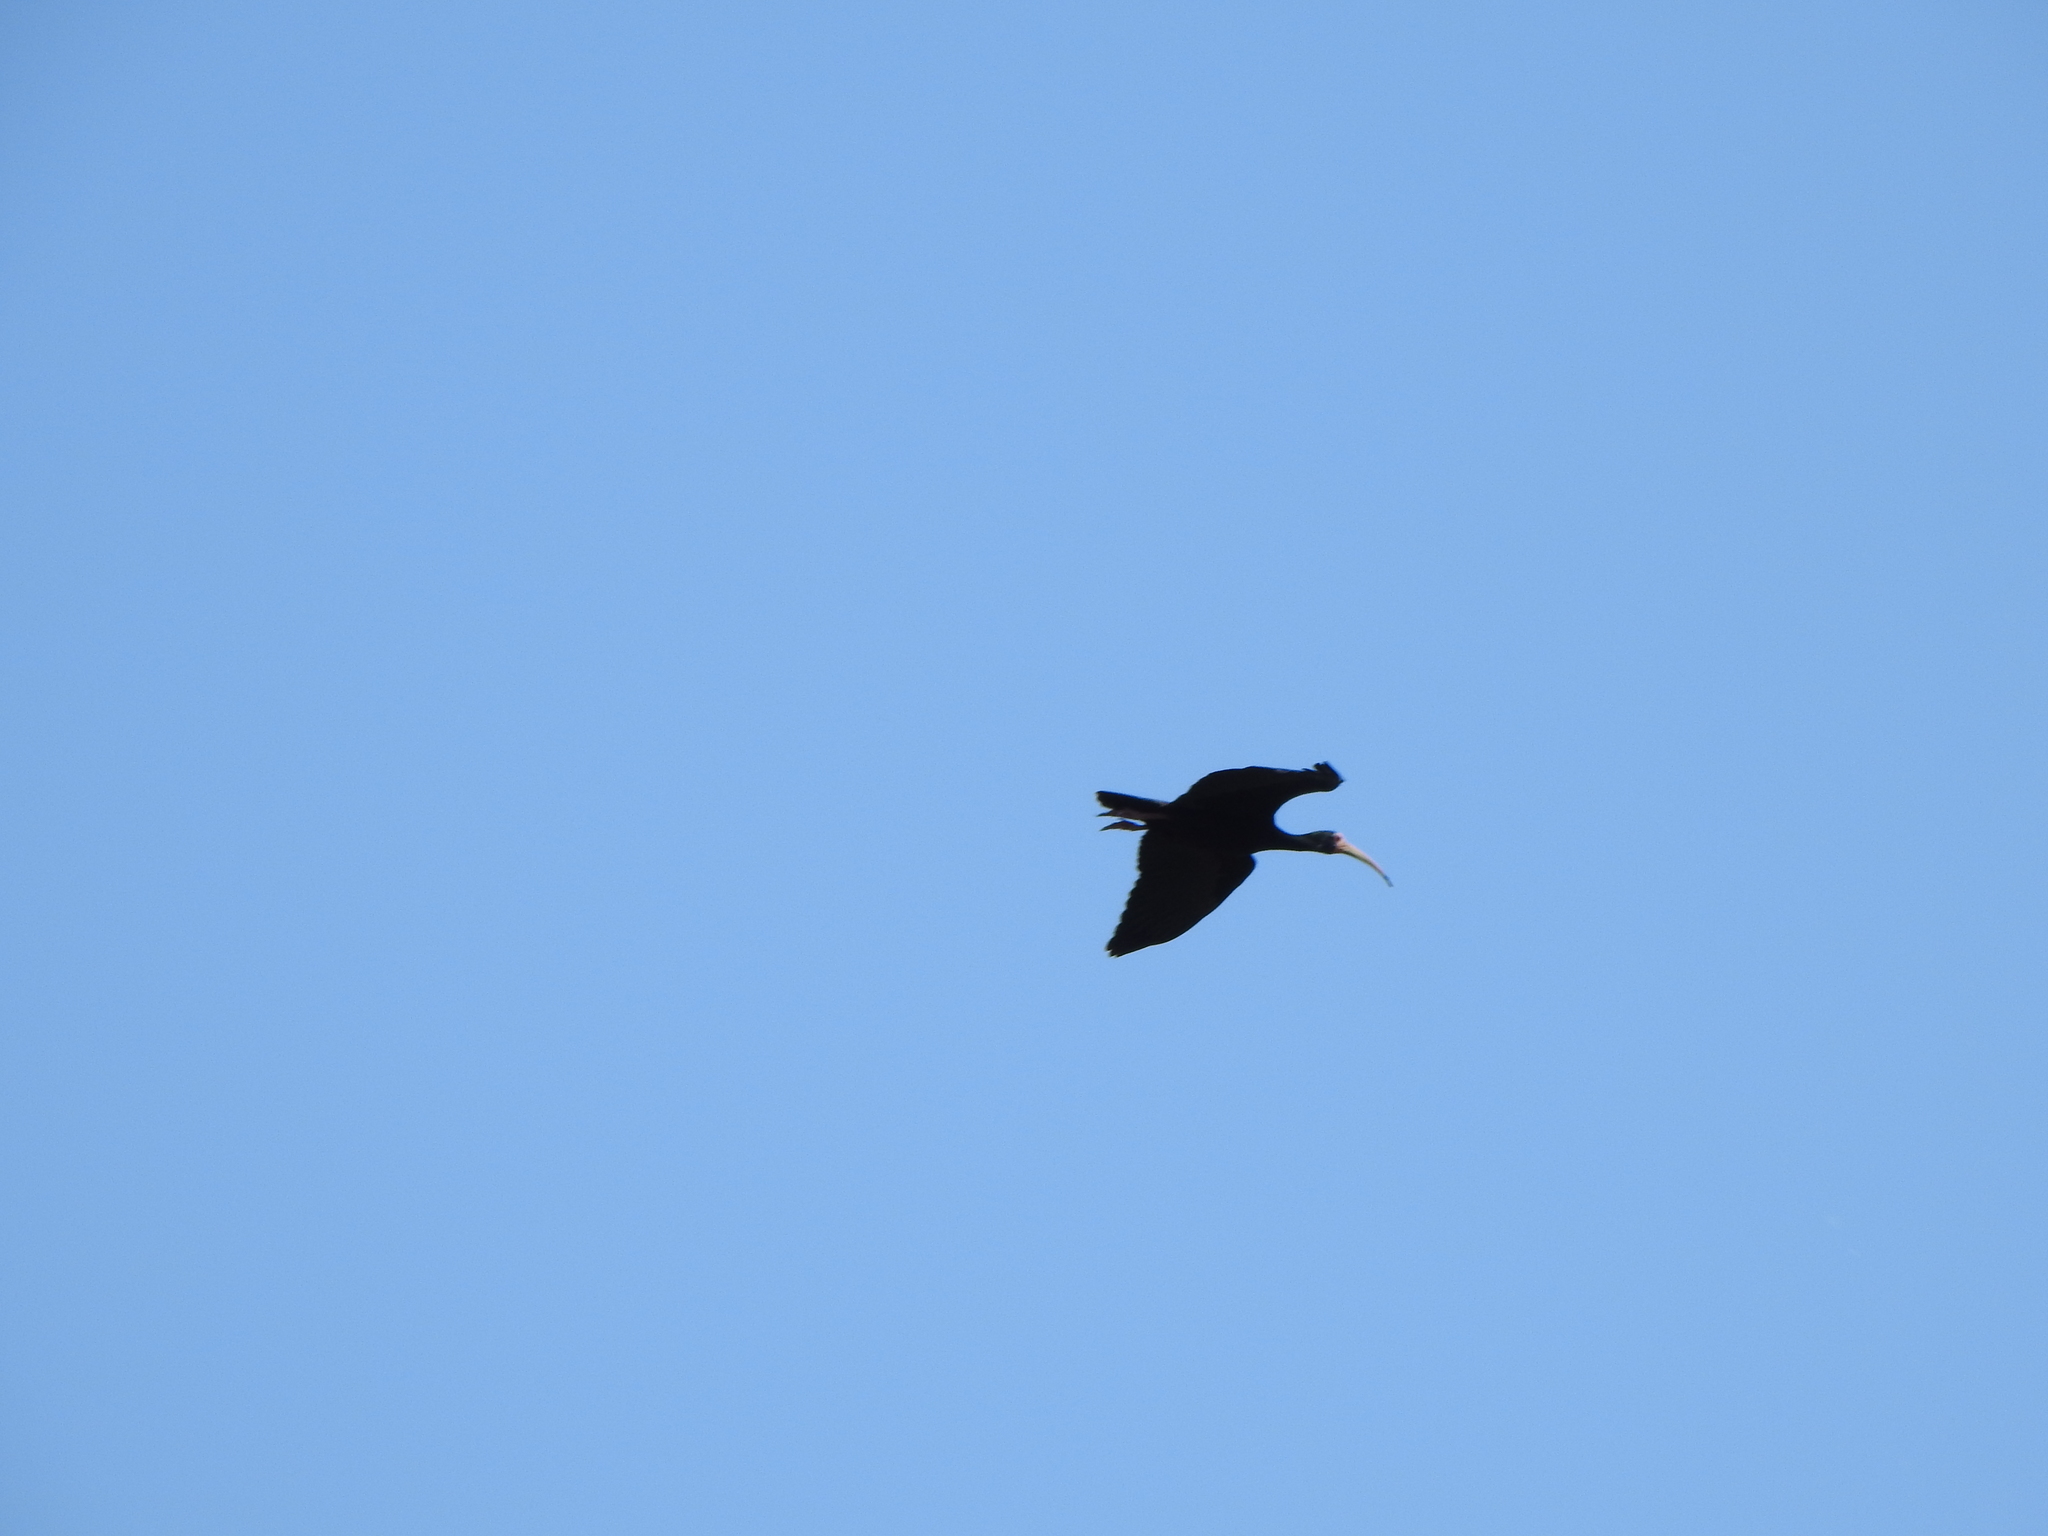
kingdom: Animalia
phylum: Chordata
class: Aves
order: Pelecaniformes
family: Threskiornithidae
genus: Phimosus
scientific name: Phimosus infuscatus
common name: Bare-faced ibis
